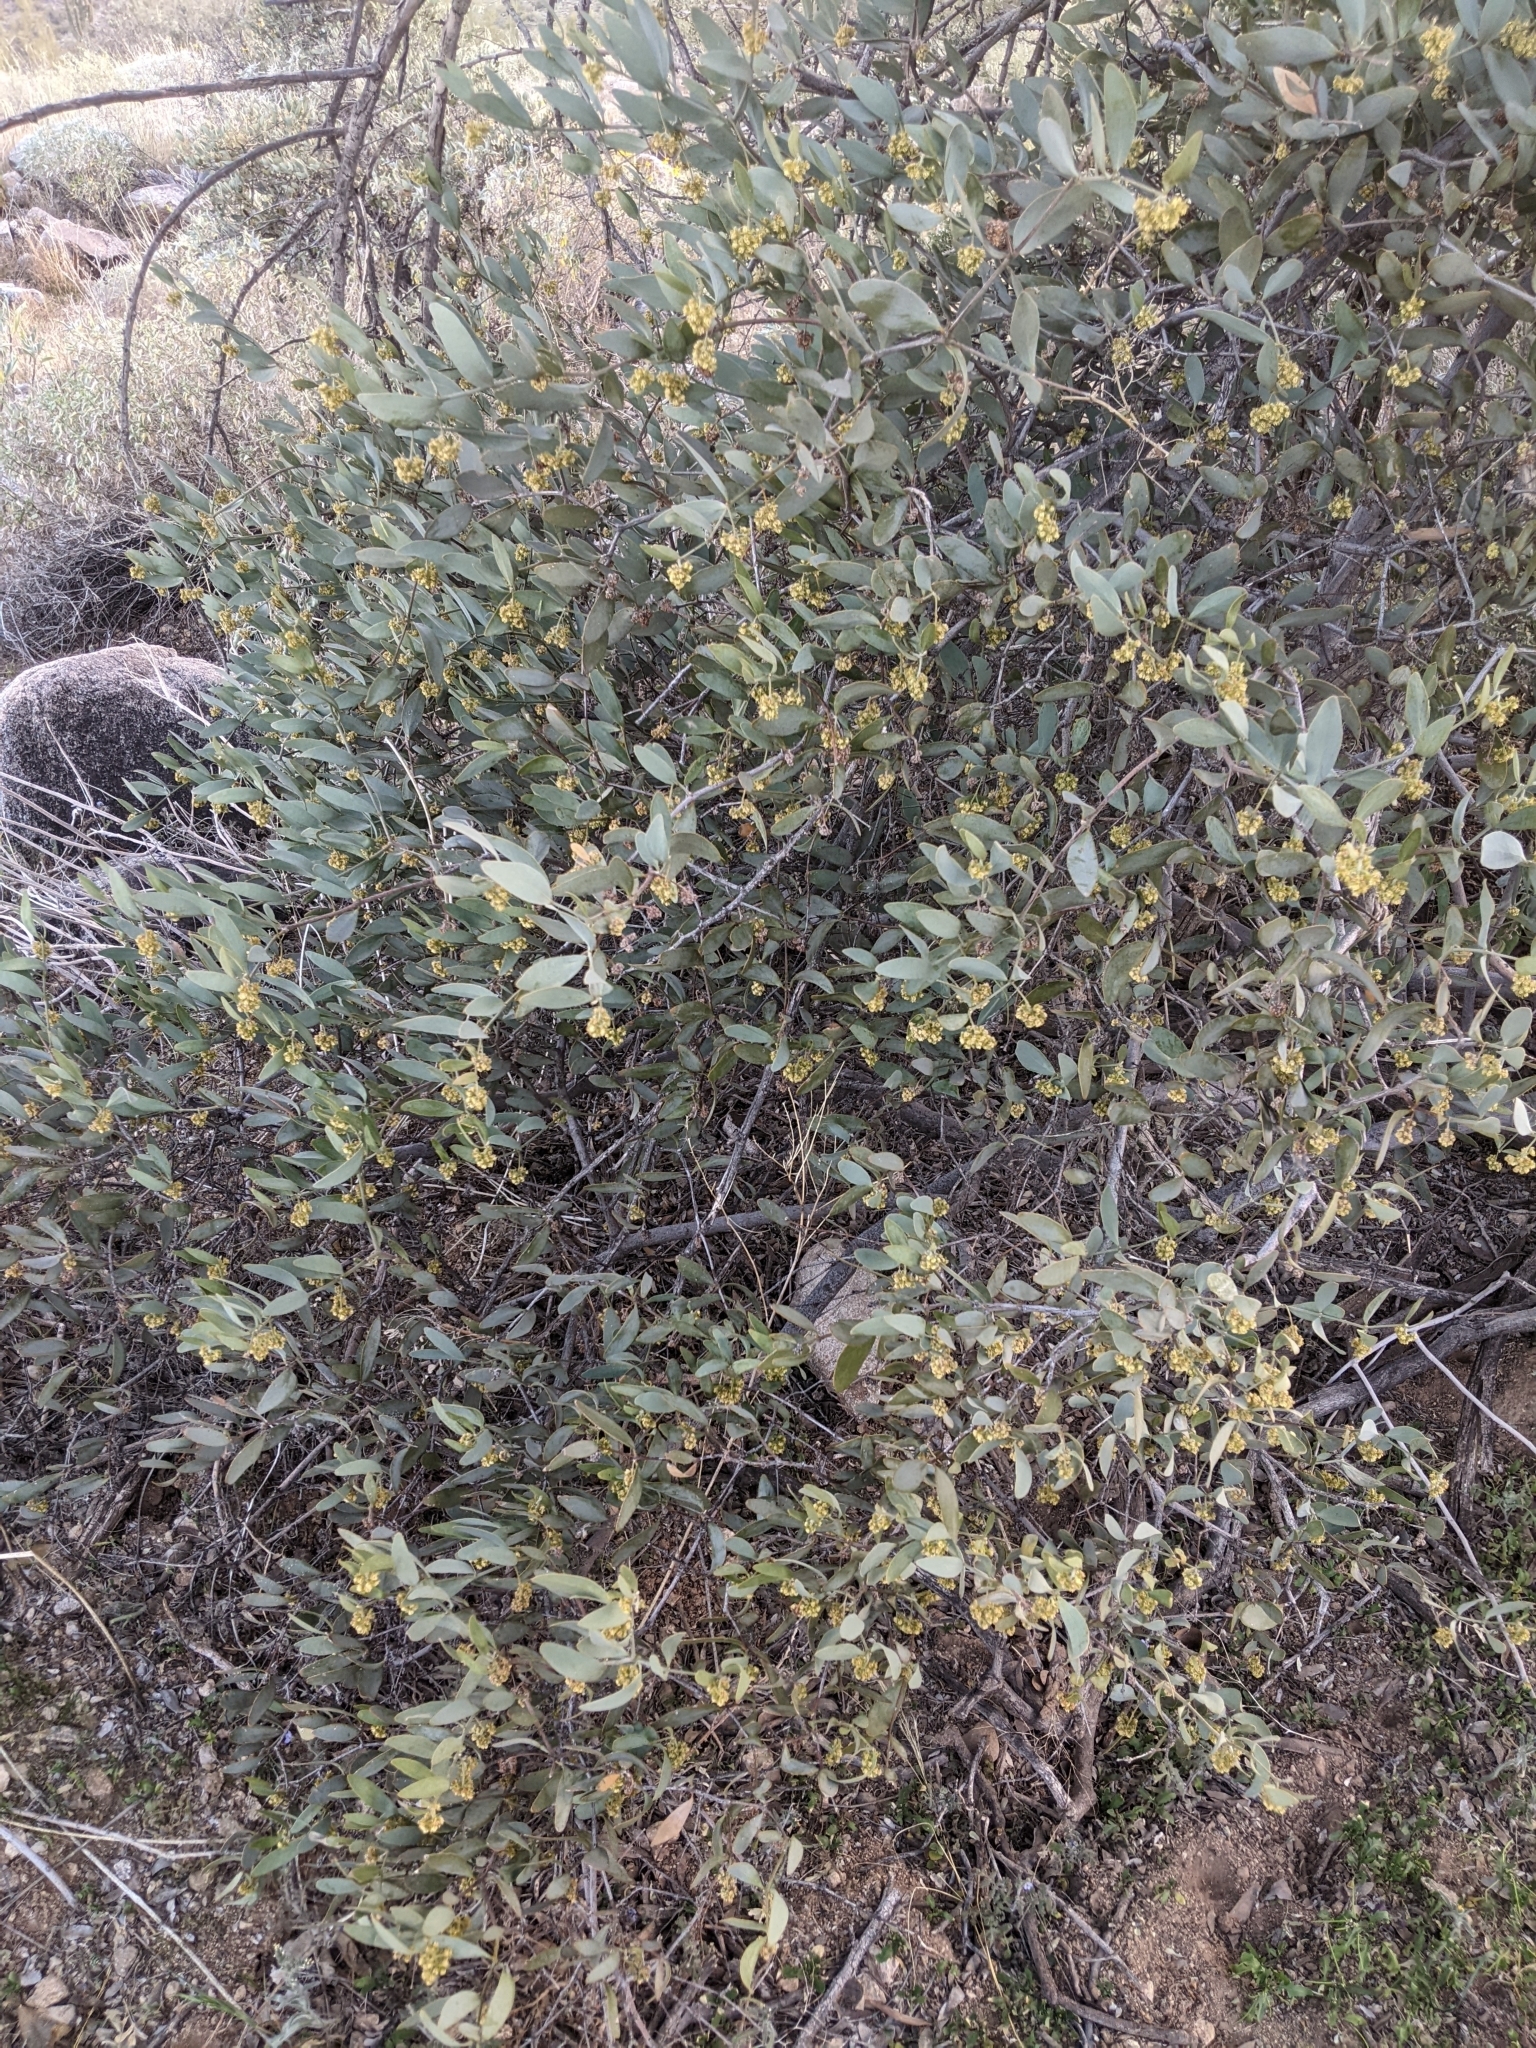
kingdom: Plantae
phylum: Tracheophyta
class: Magnoliopsida
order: Caryophyllales
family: Simmondsiaceae
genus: Simmondsia
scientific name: Simmondsia chinensis
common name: Jojoba
